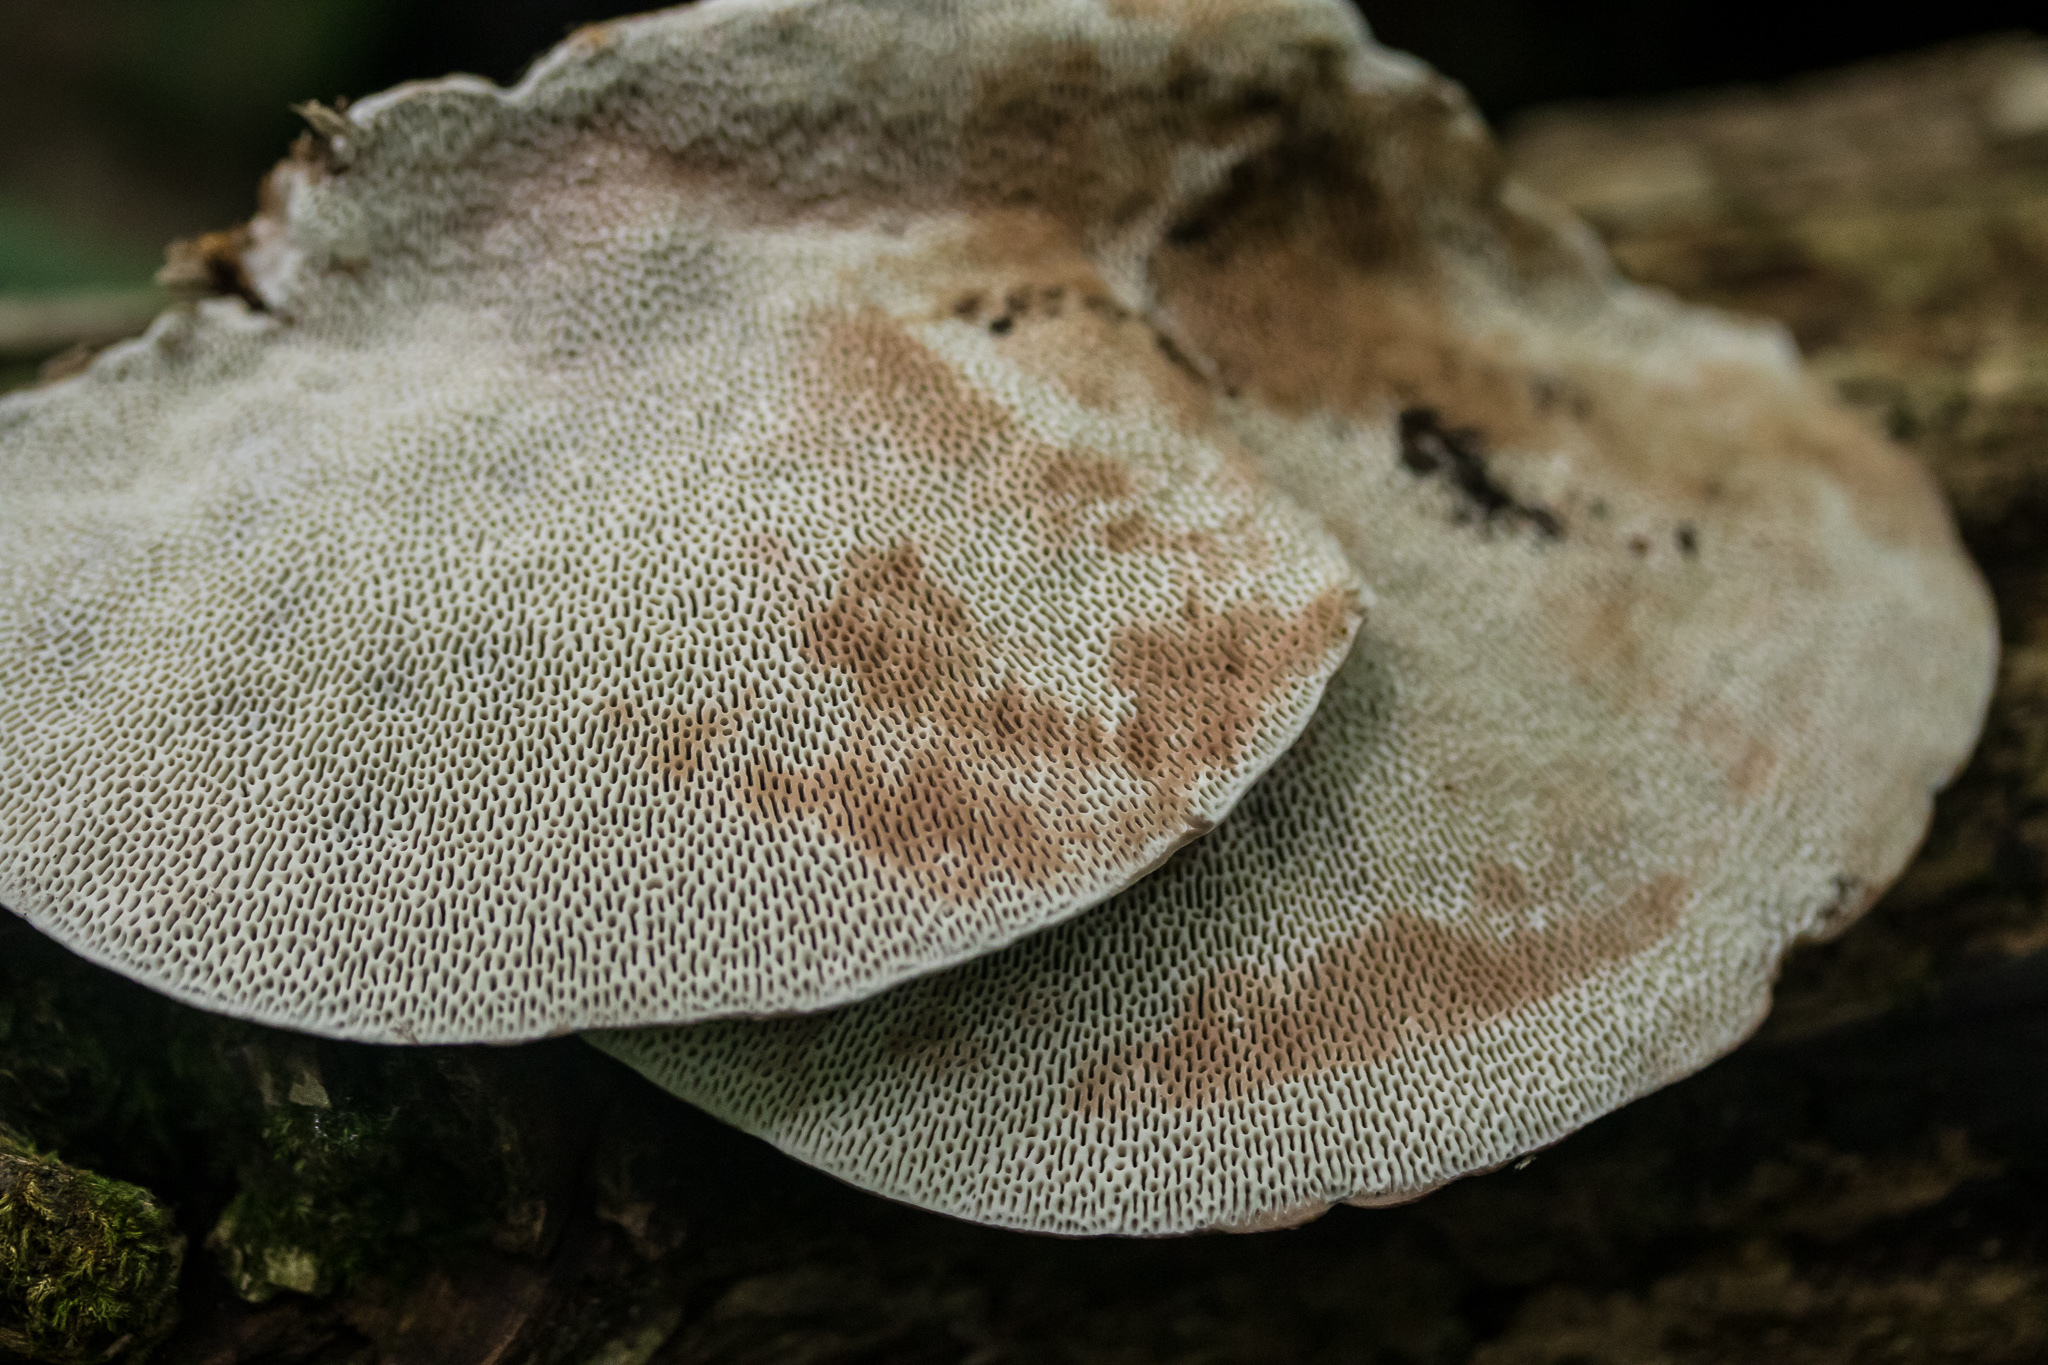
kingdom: Fungi
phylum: Basidiomycota
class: Agaricomycetes
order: Polyporales
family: Polyporaceae
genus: Daedaleopsis
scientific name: Daedaleopsis confragosa
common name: Blushing bracket
